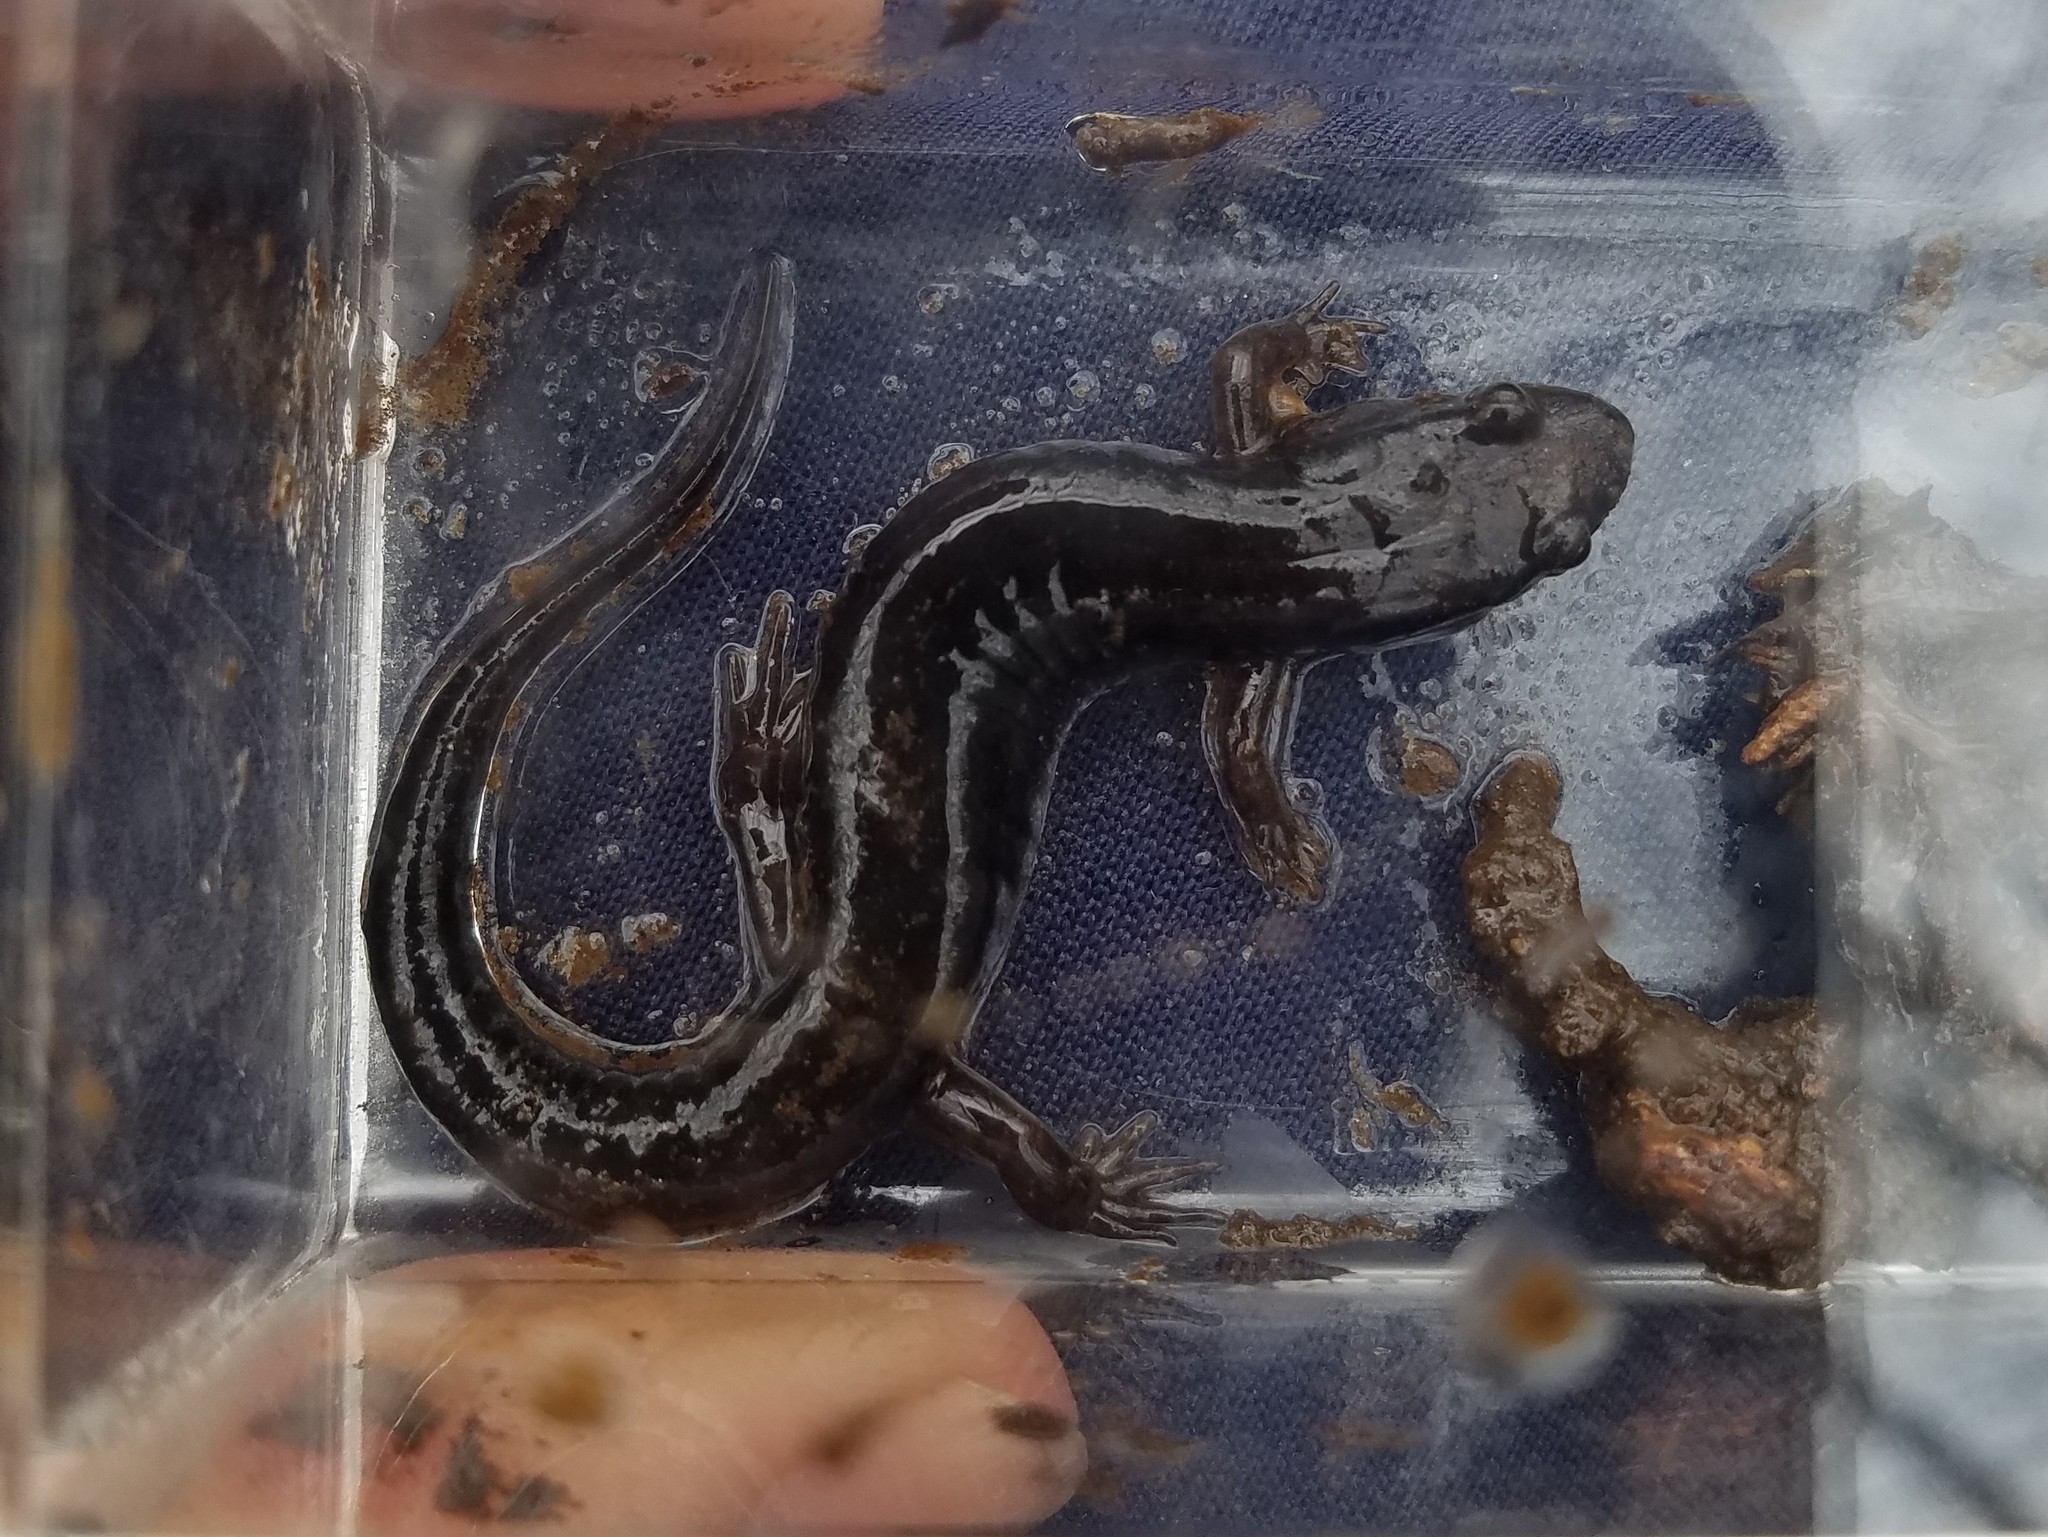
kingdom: Animalia
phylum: Chordata
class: Amphibia
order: Caudata
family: Plethodontidae
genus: Desmognathus
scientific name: Desmognathus ocoee
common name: Ocoee salamander
